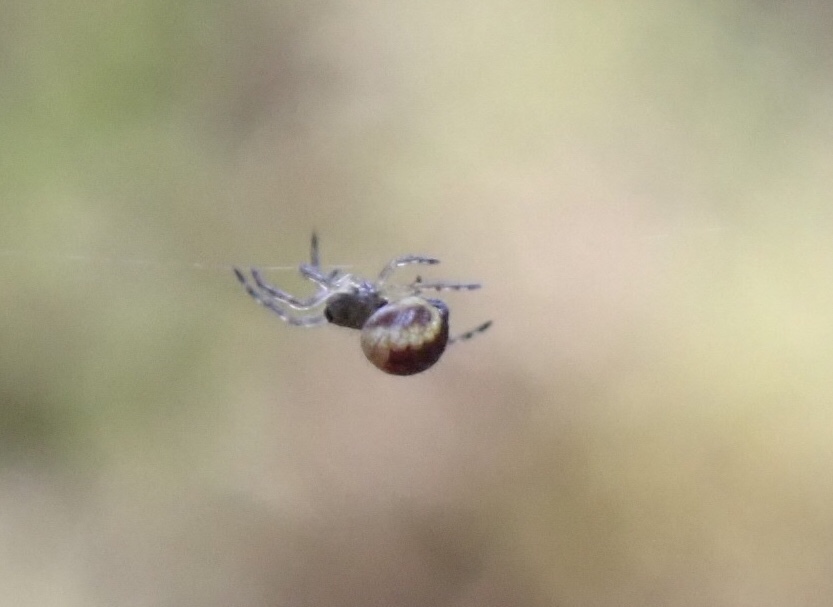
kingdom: Animalia
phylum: Arthropoda
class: Arachnida
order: Araneae
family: Araneidae
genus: Araneus
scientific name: Araneus
